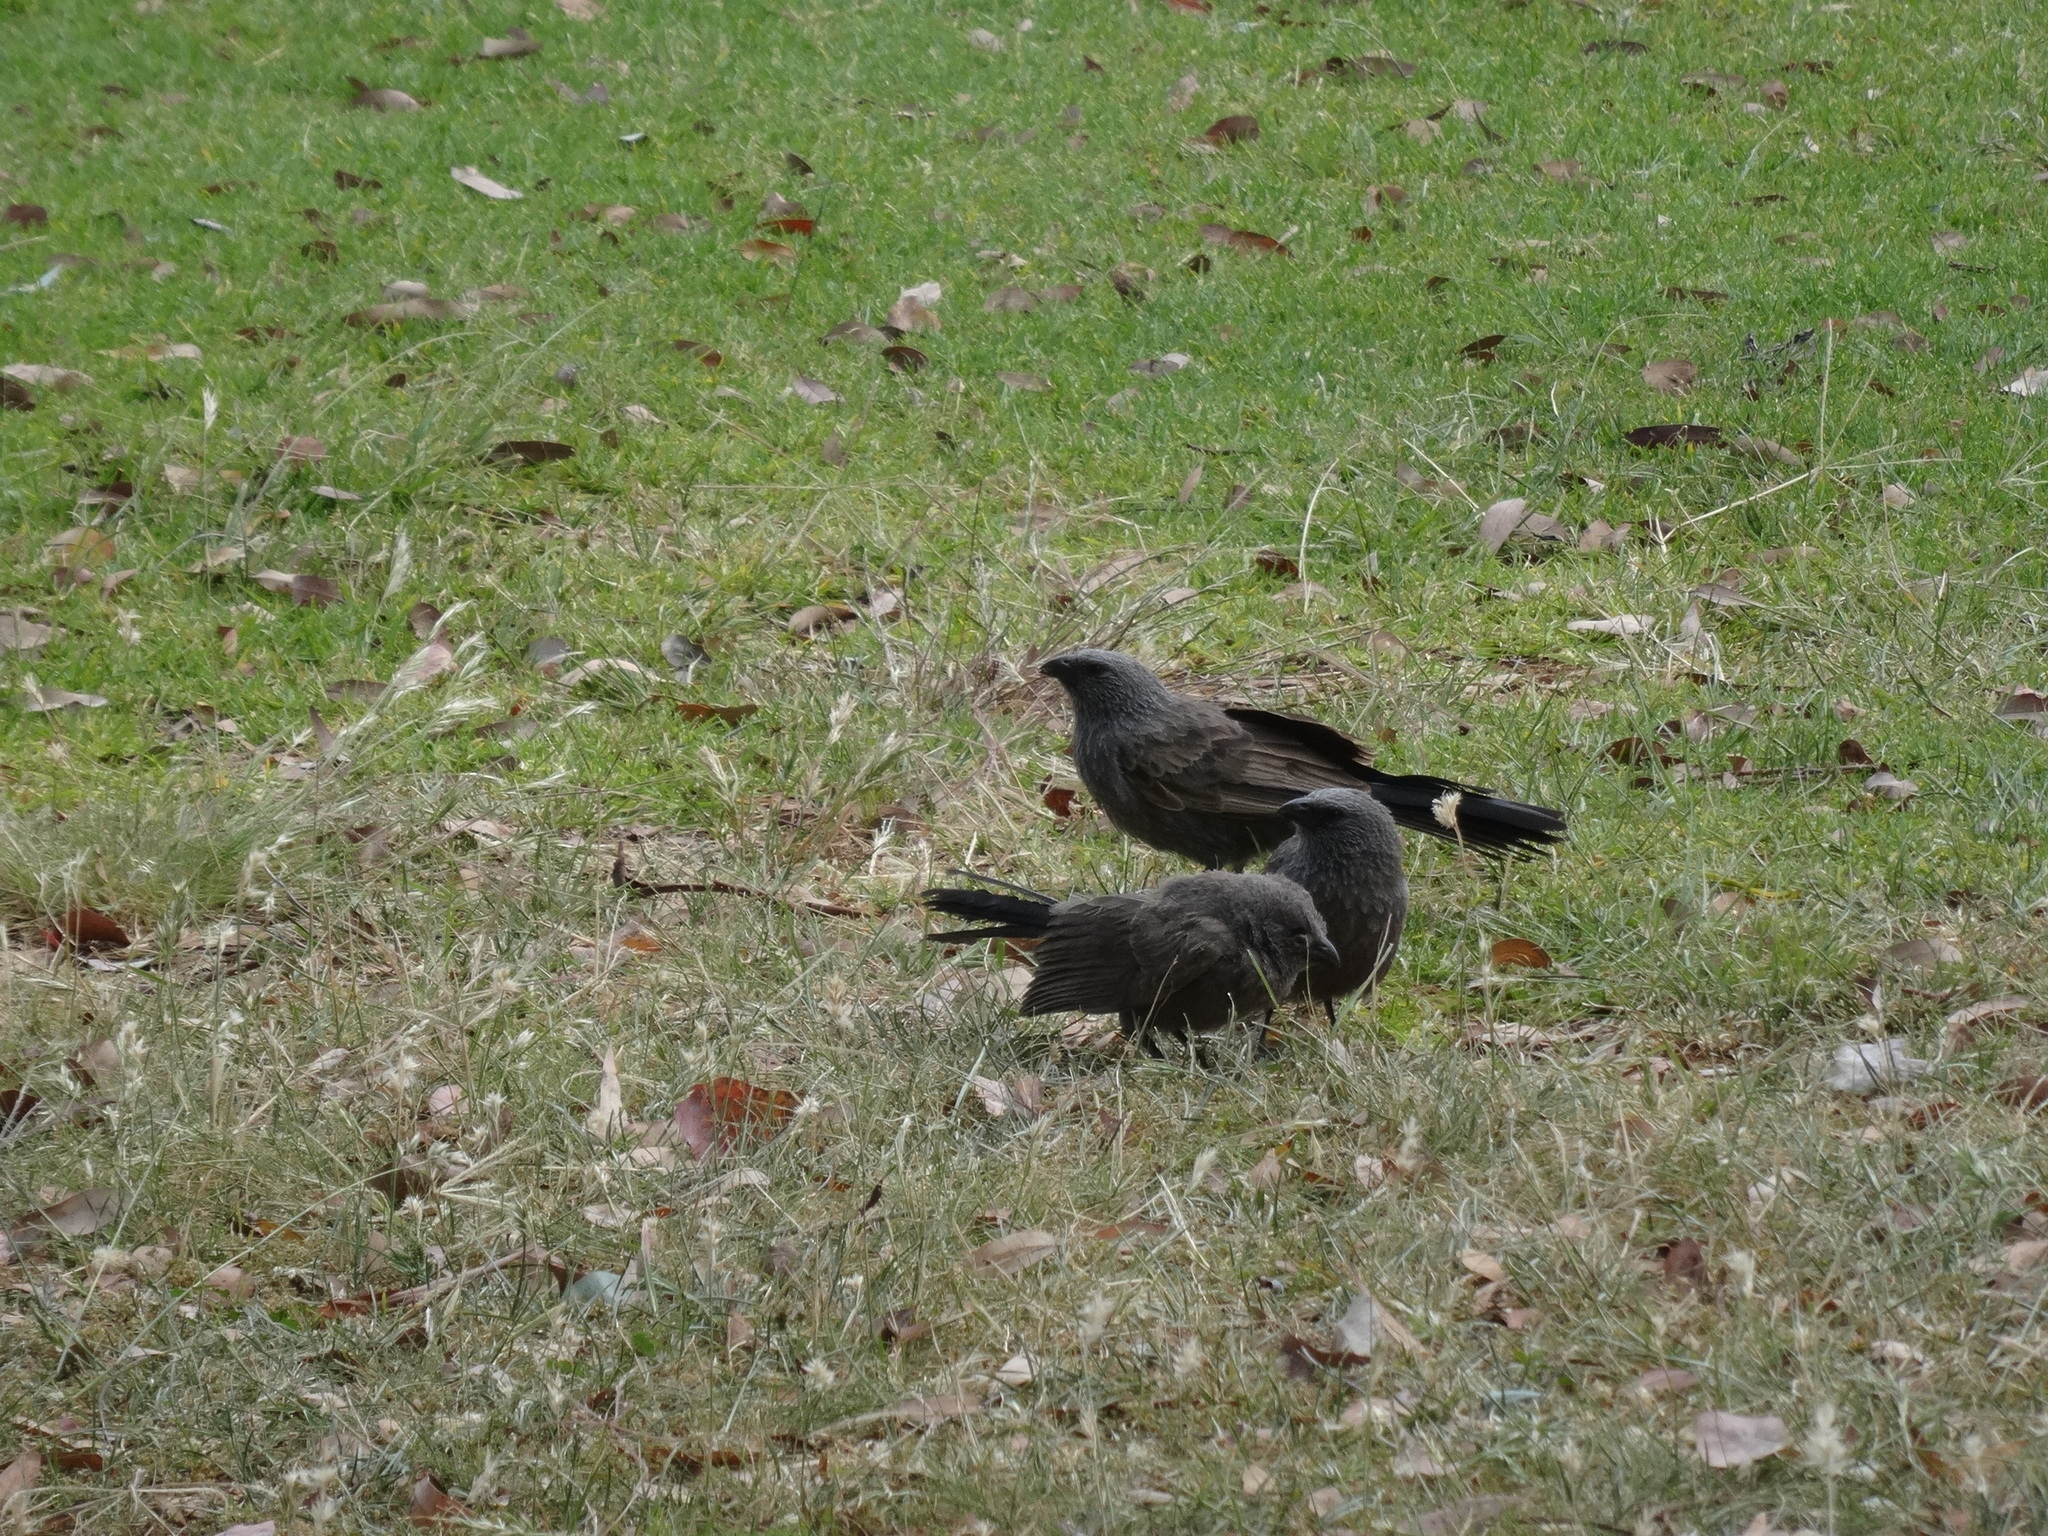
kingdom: Animalia
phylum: Chordata
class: Aves
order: Passeriformes
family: Corcoracidae
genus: Struthidea
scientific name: Struthidea cinerea
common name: Apostlebird
